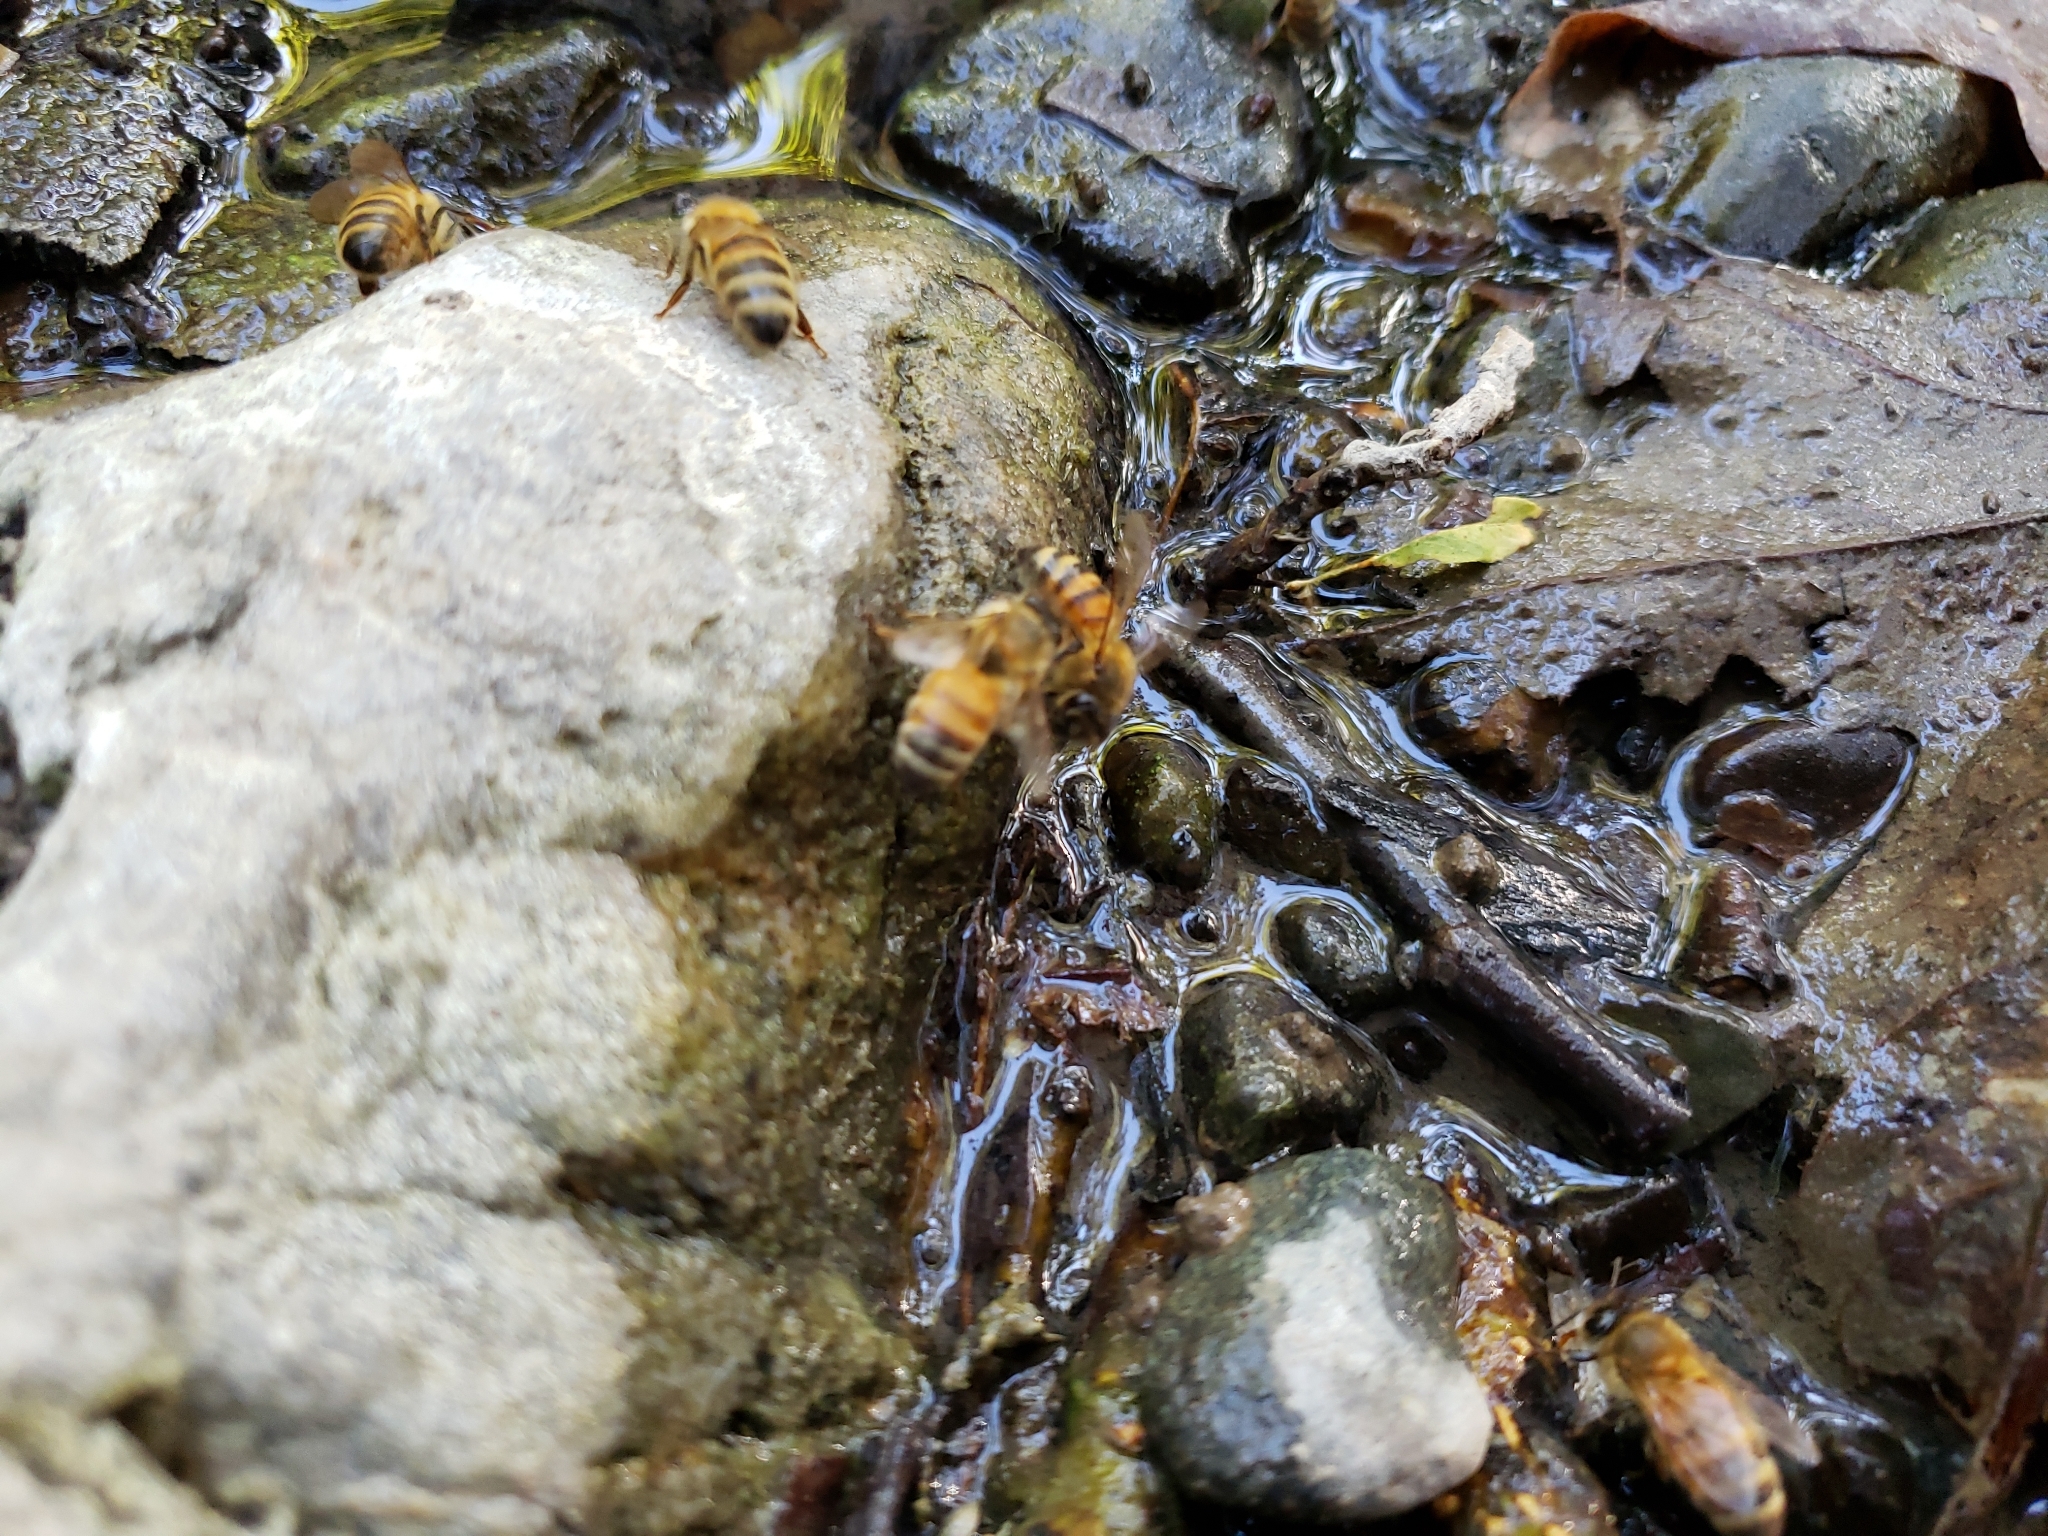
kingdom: Animalia
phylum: Arthropoda
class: Insecta
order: Hymenoptera
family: Apidae
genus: Apis
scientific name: Apis mellifera
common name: Honey bee
